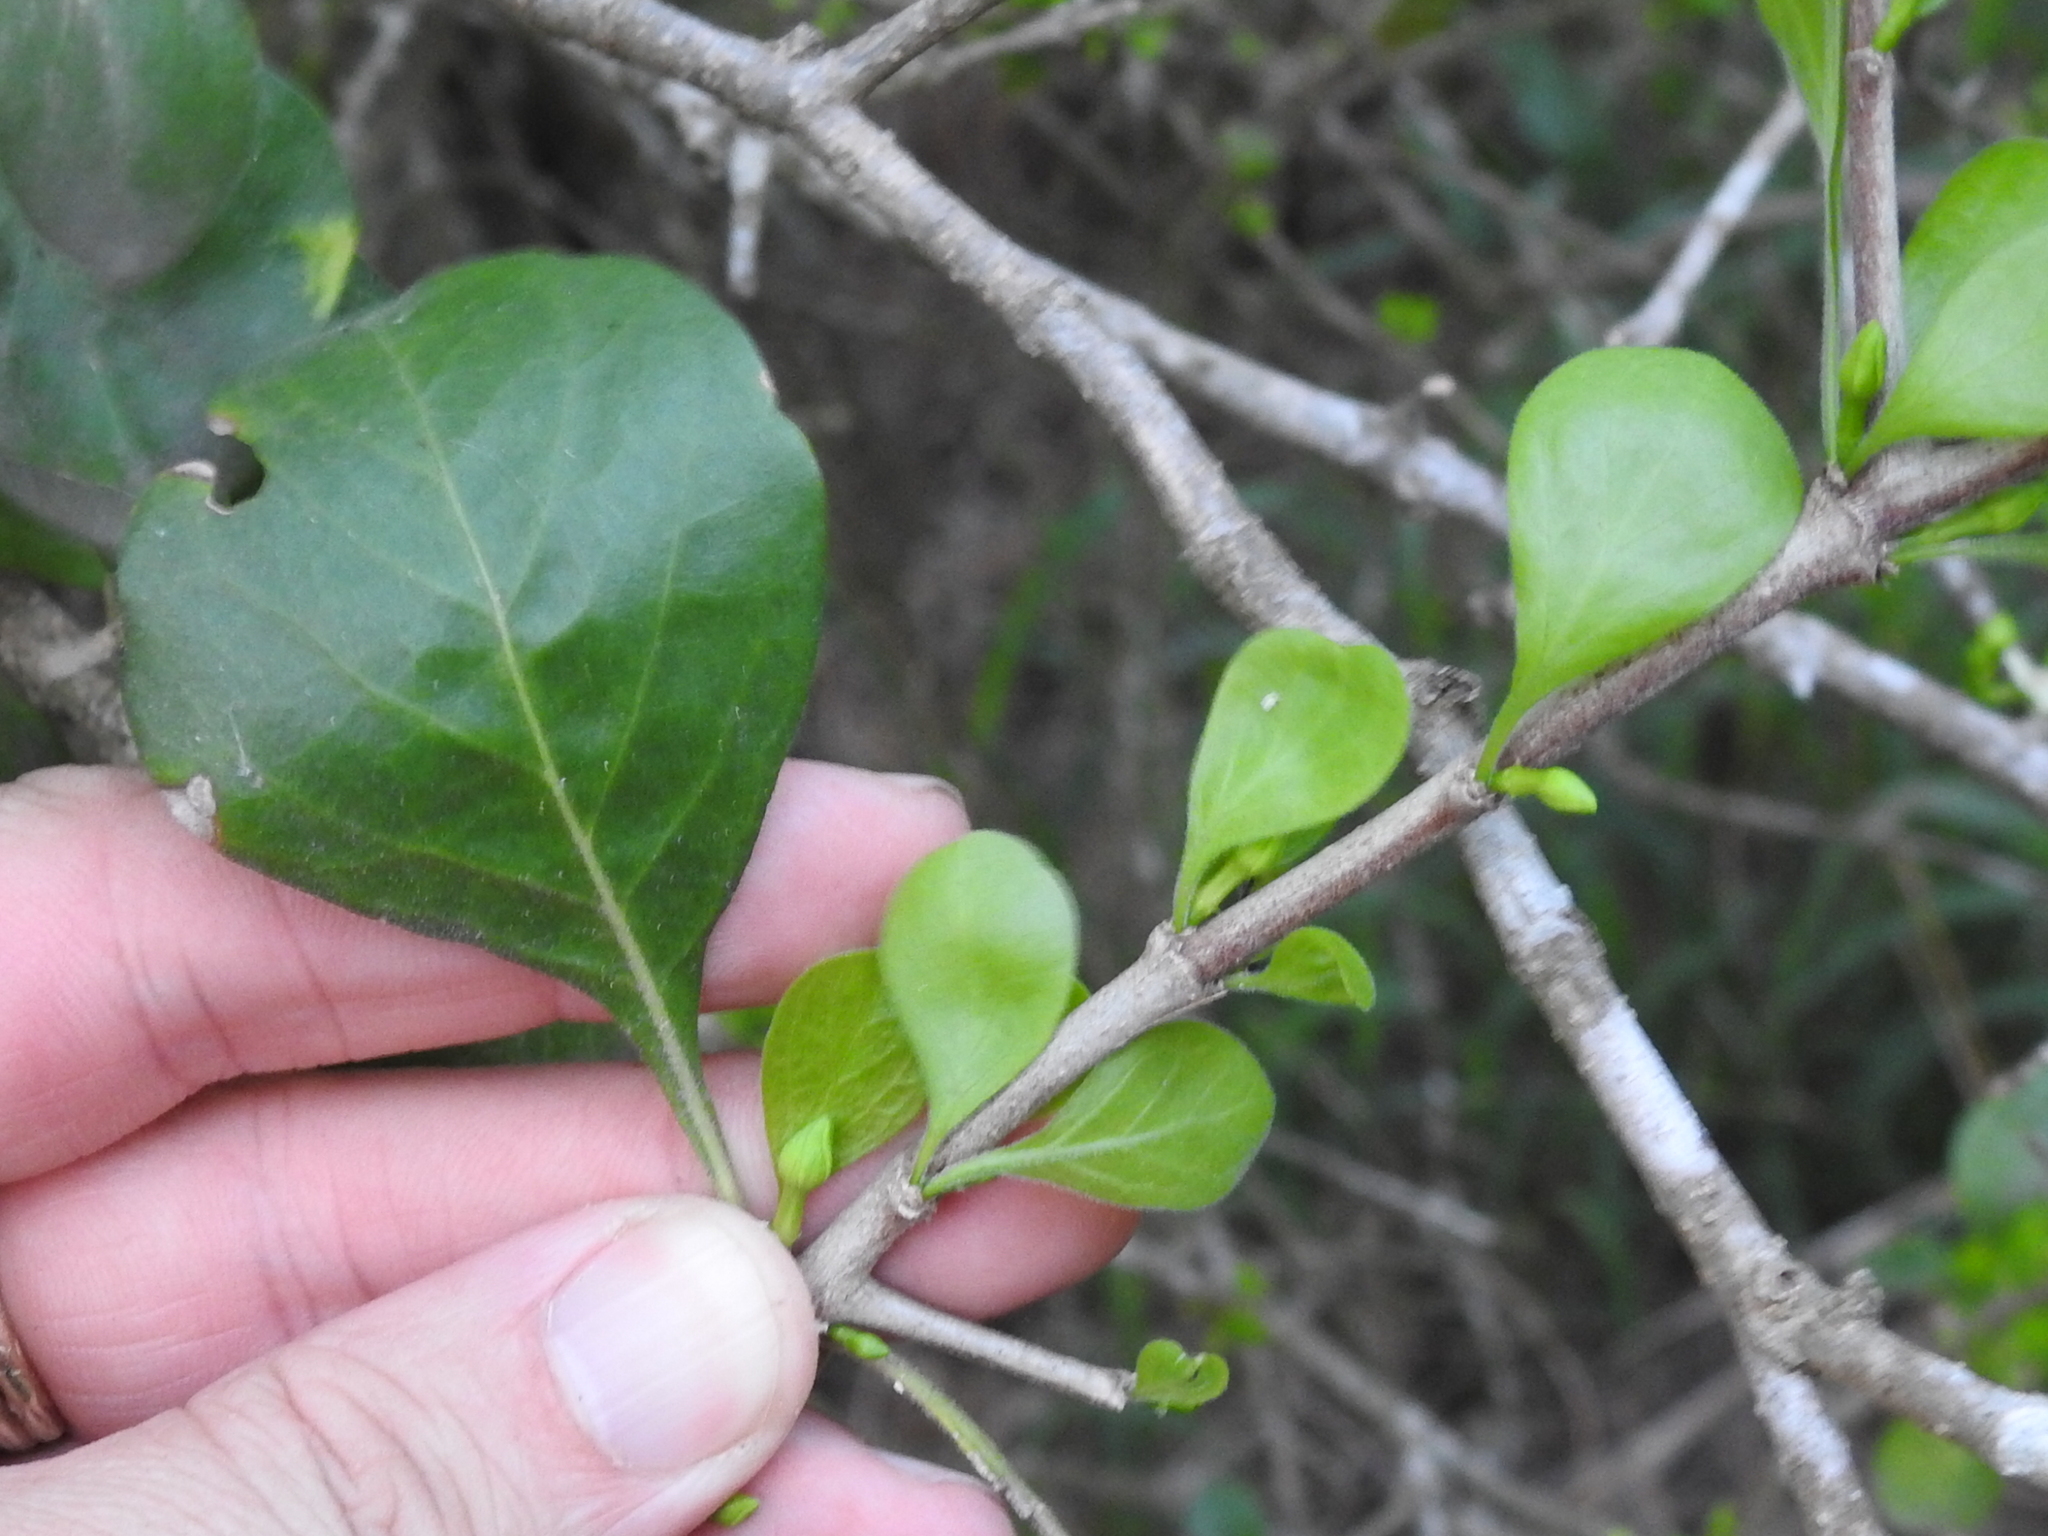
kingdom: Plantae
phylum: Tracheophyta
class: Magnoliopsida
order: Gentianales
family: Rubiaceae
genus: Randia
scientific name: Randia obcordata
